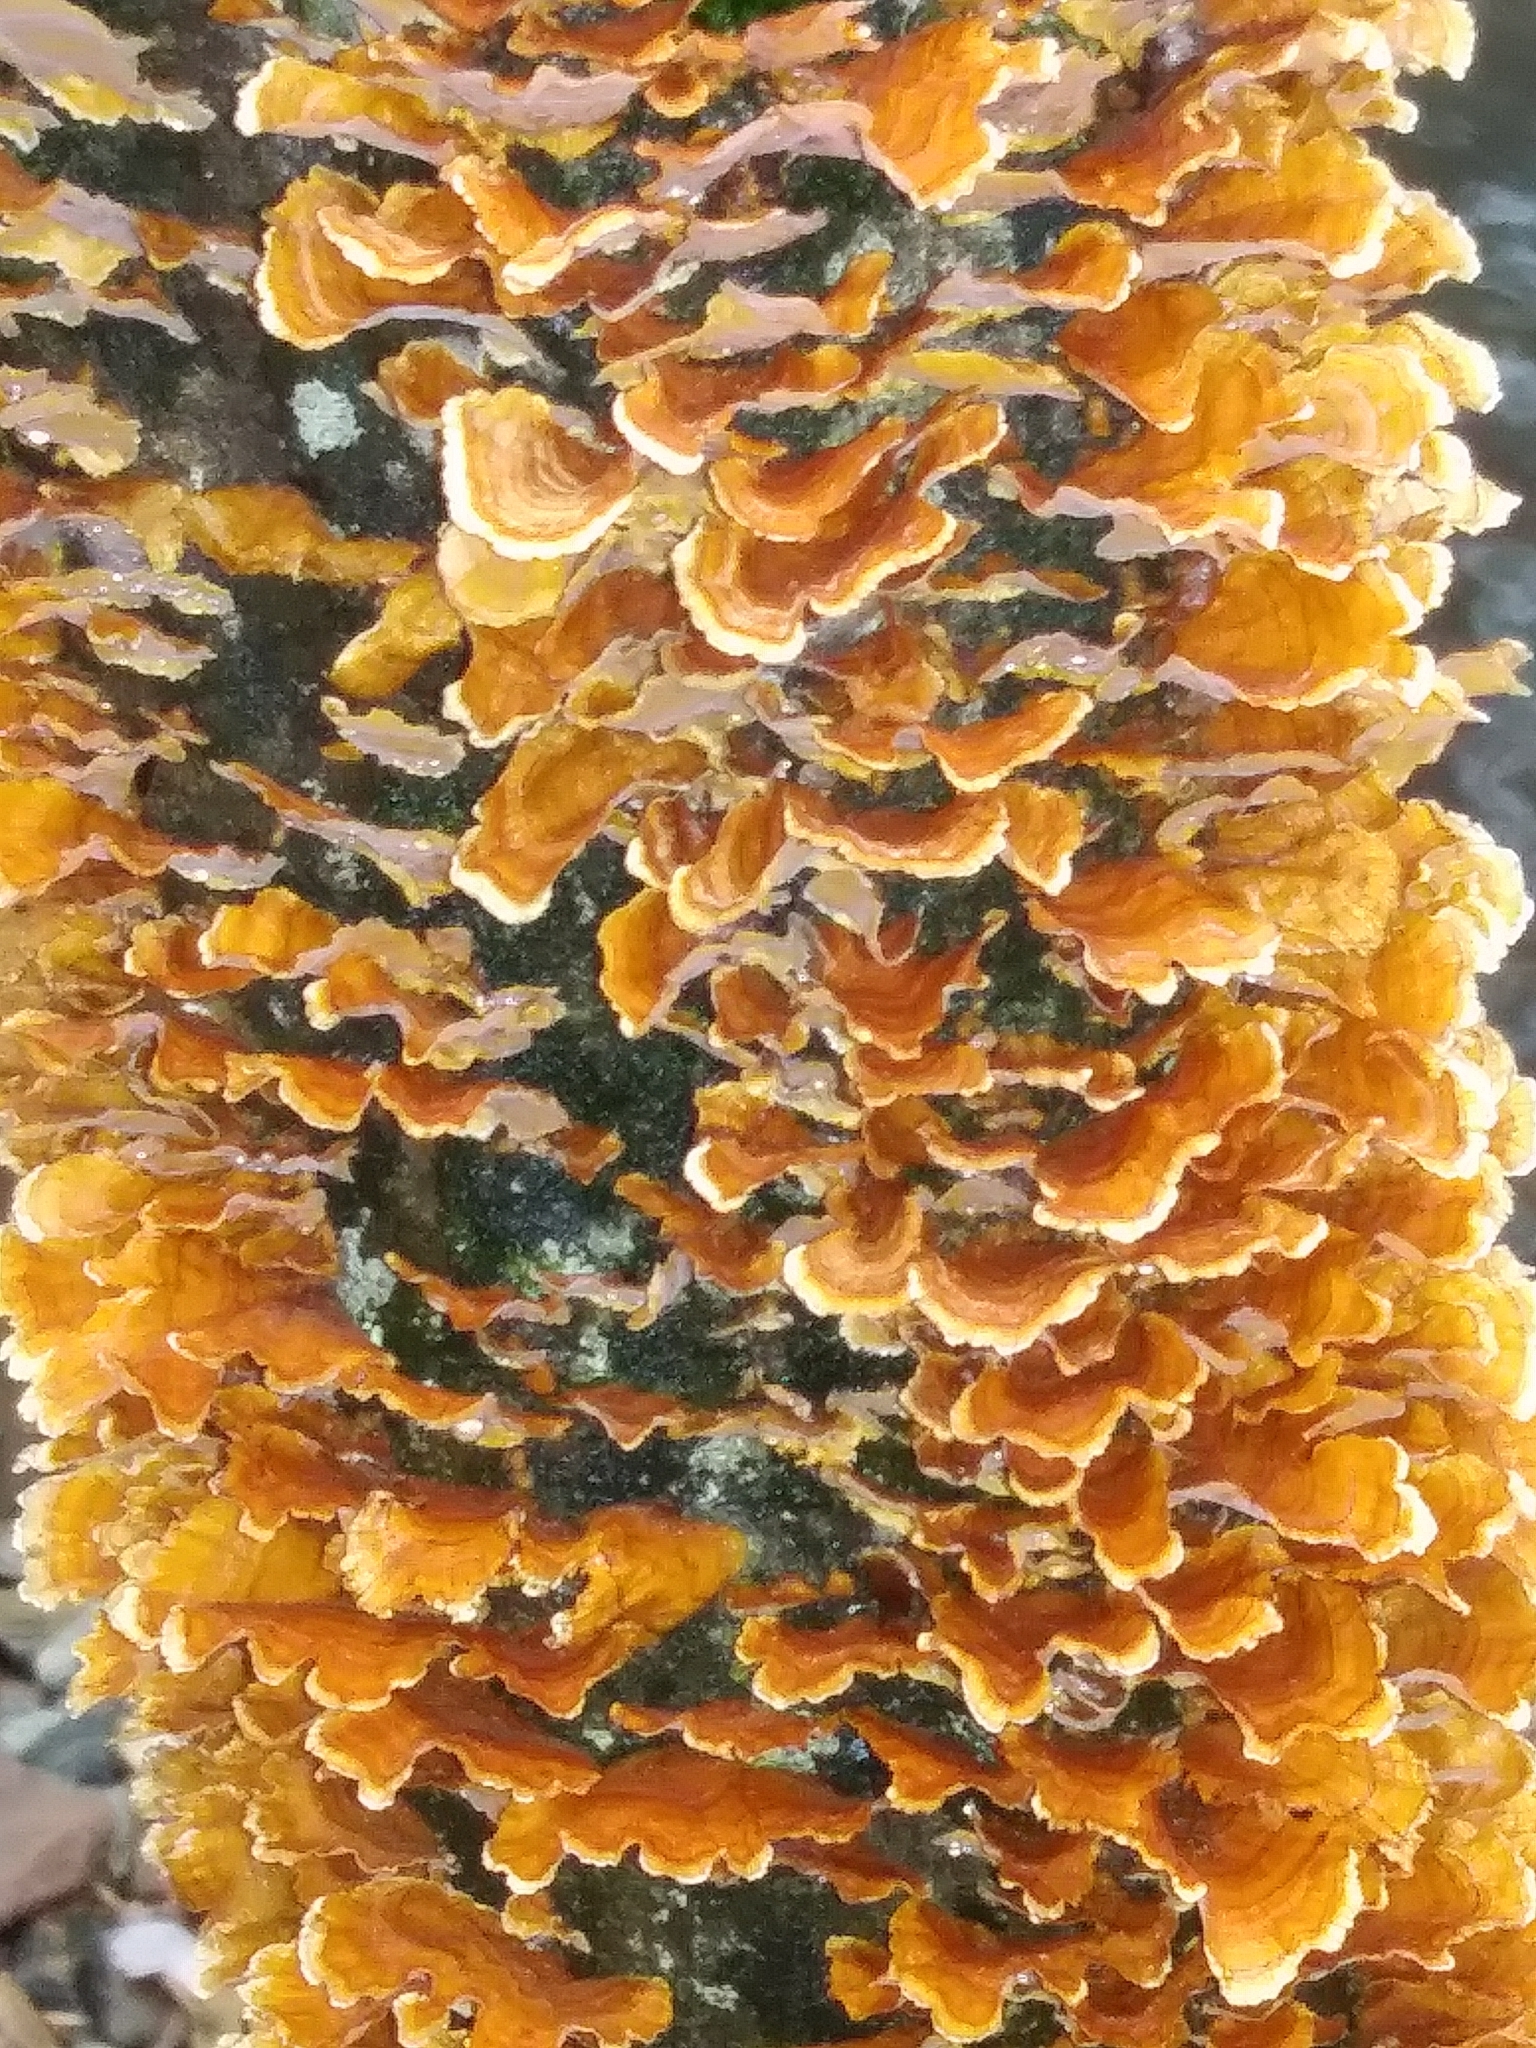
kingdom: Fungi
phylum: Basidiomycota
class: Agaricomycetes
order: Russulales
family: Stereaceae
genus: Stereum
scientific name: Stereum complicatum
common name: Crowded parchment
